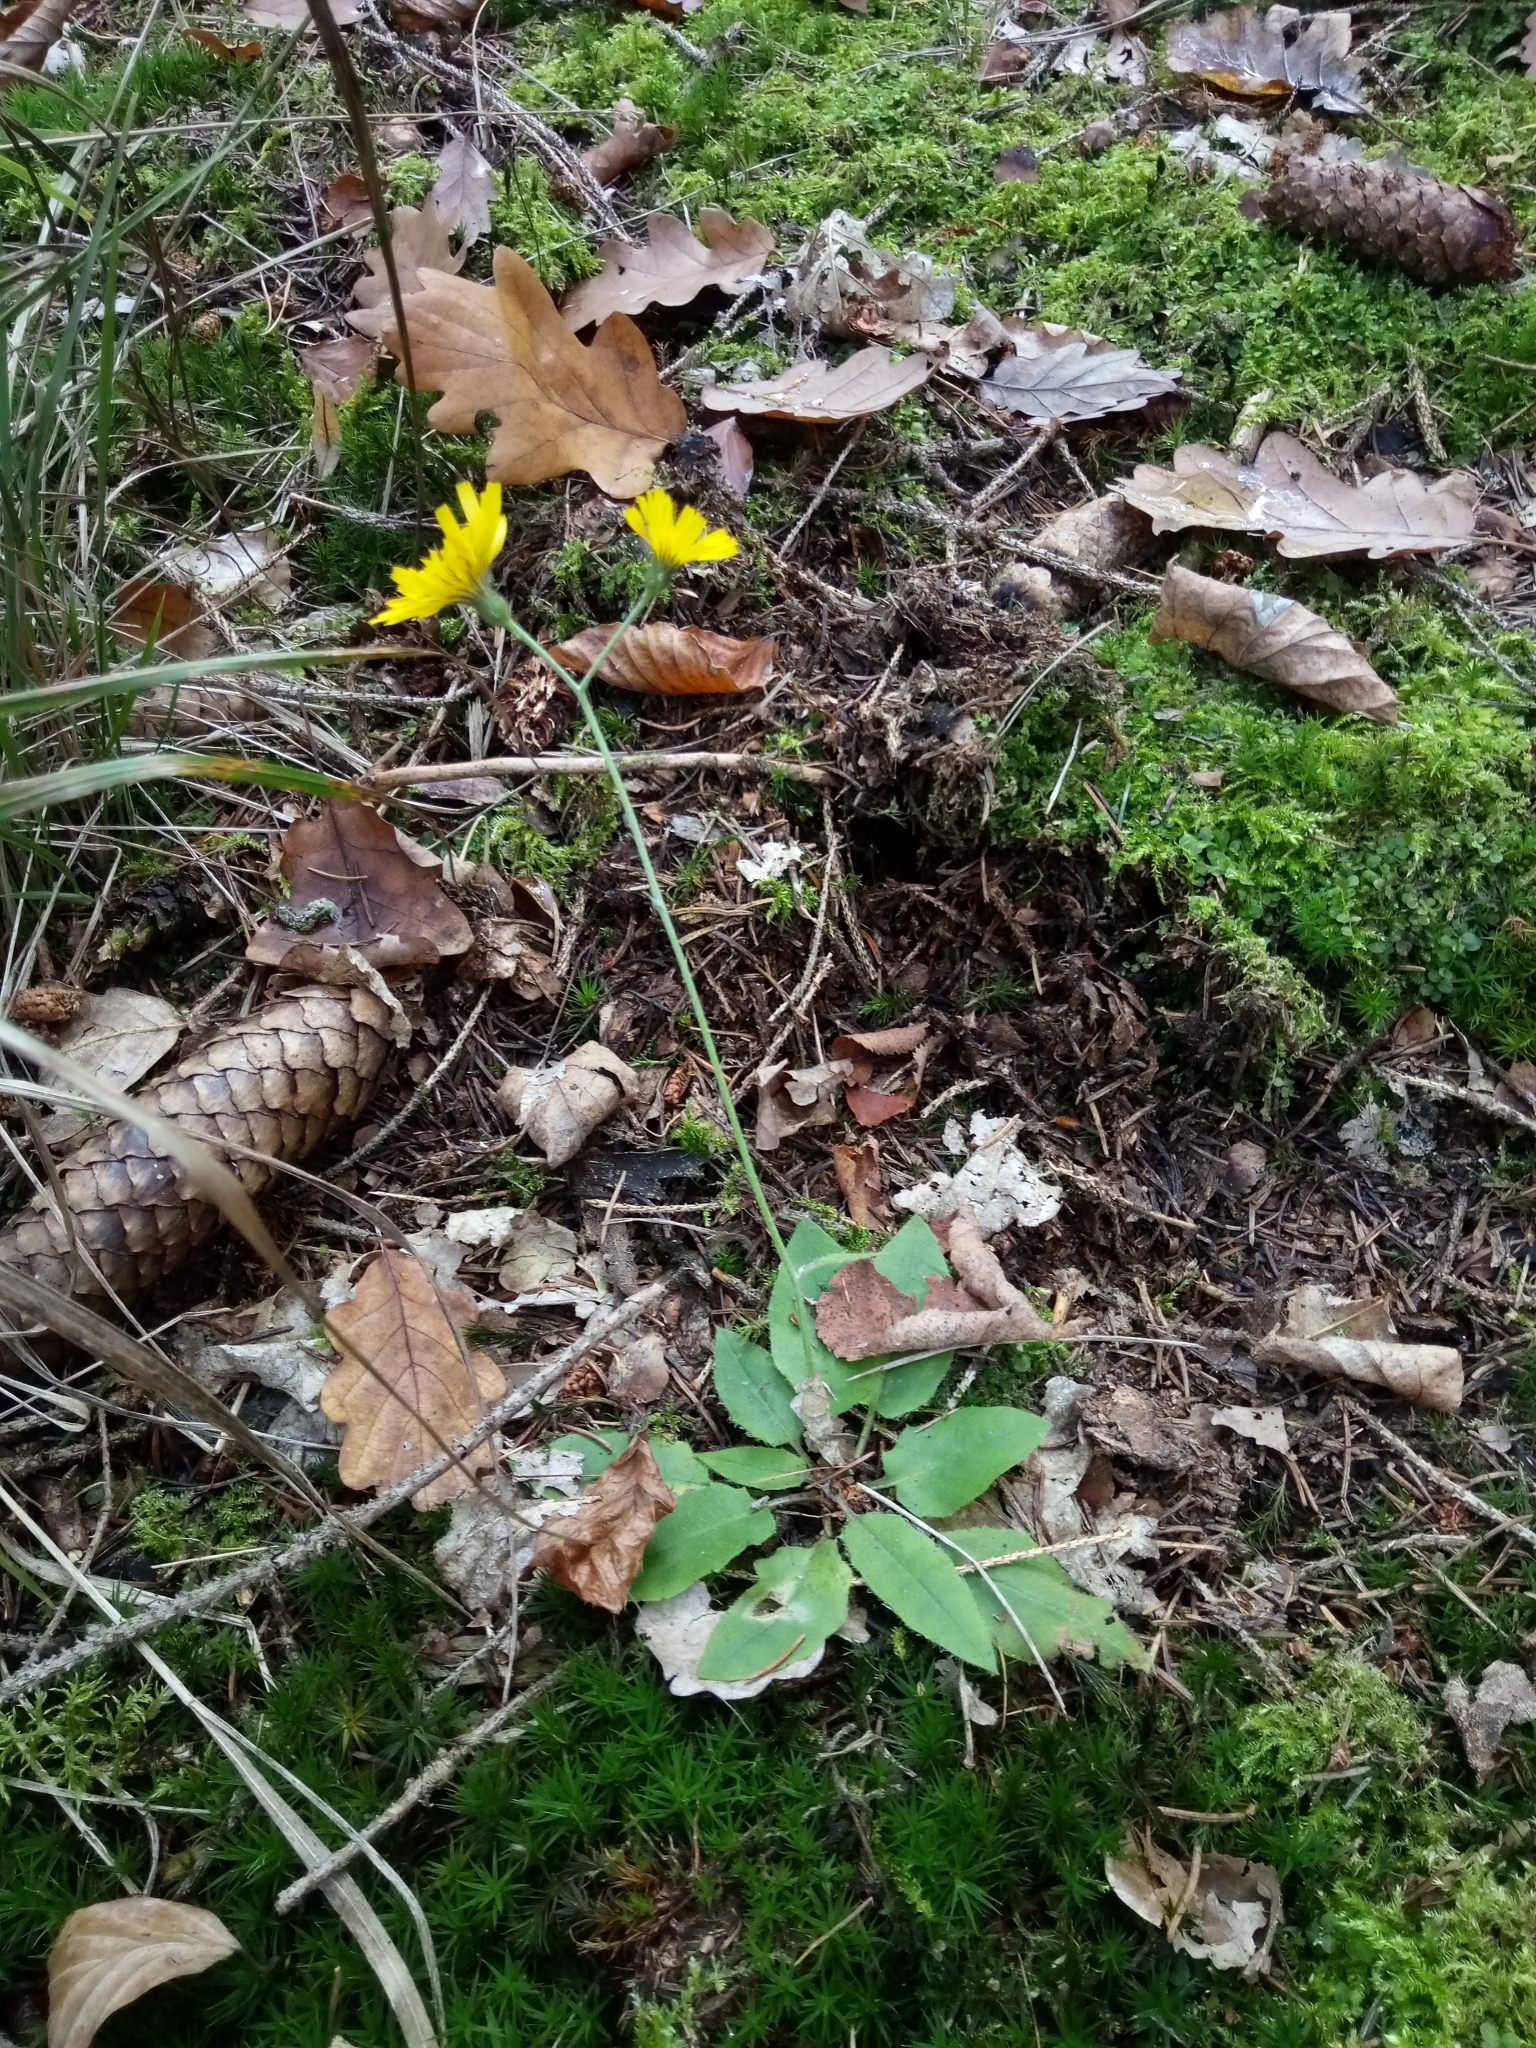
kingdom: Plantae
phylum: Tracheophyta
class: Magnoliopsida
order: Asterales
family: Asteraceae
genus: Hieracium
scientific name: Hieracium murorum
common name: Wall hawkweed
